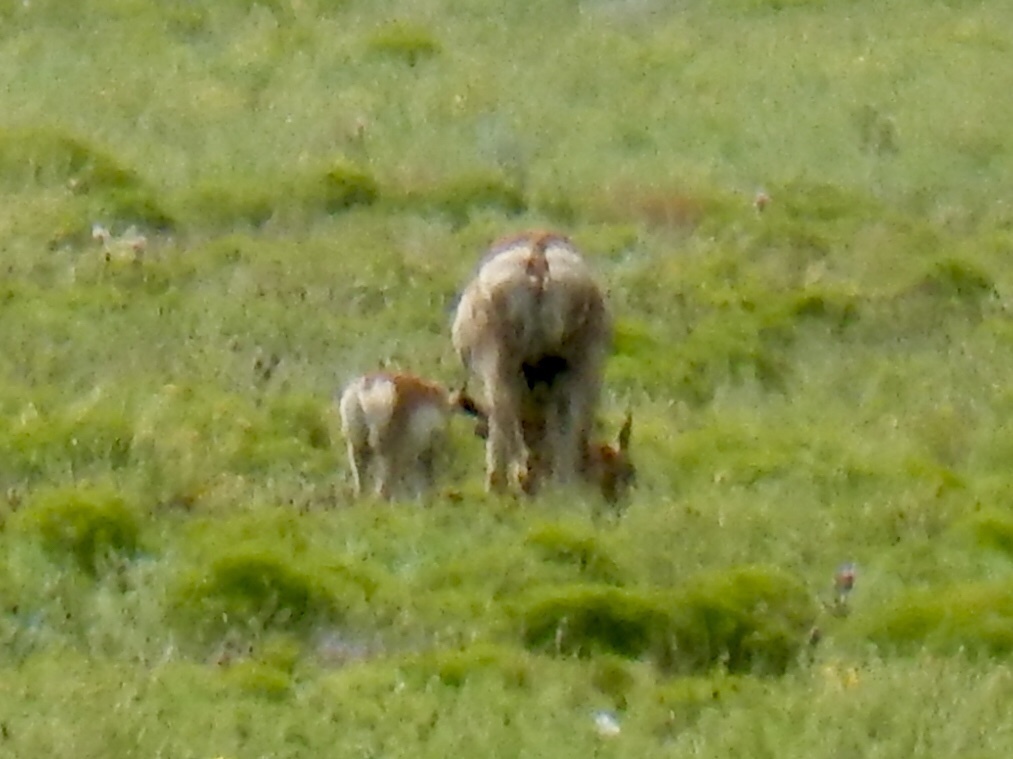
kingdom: Animalia
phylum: Chordata
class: Mammalia
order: Artiodactyla
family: Antilocapridae
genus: Antilocapra
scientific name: Antilocapra americana
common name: Pronghorn
